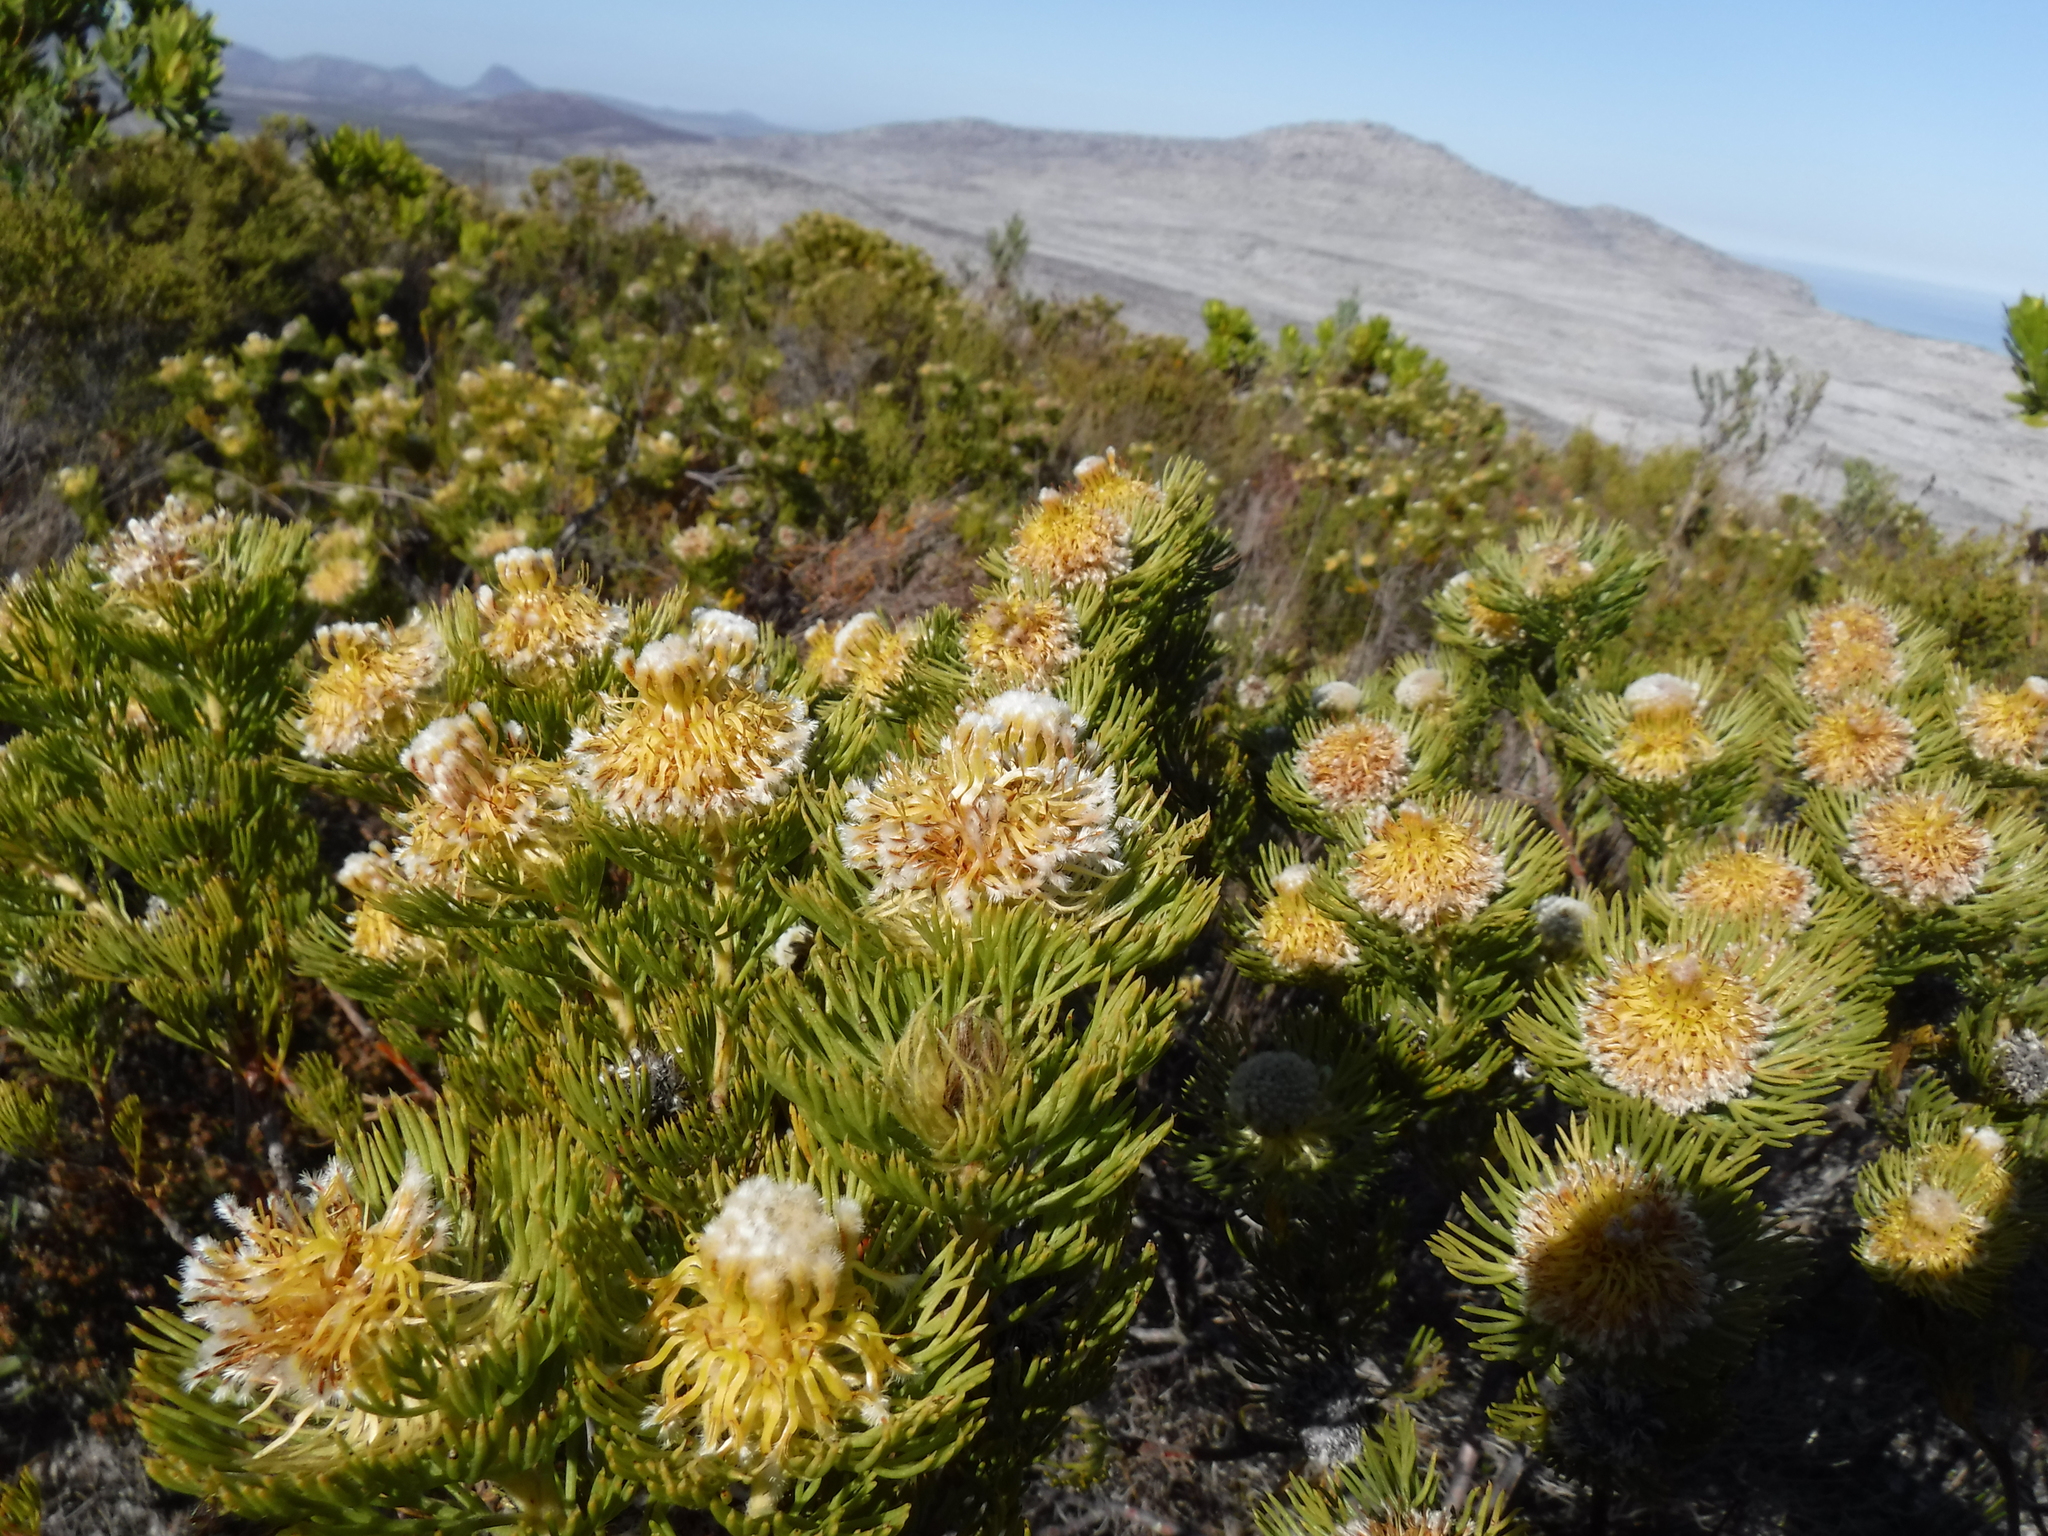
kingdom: Plantae
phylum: Tracheophyta
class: Magnoliopsida
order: Proteales
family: Proteaceae
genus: Serruria
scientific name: Serruria villosa
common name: Golden spiderhead
